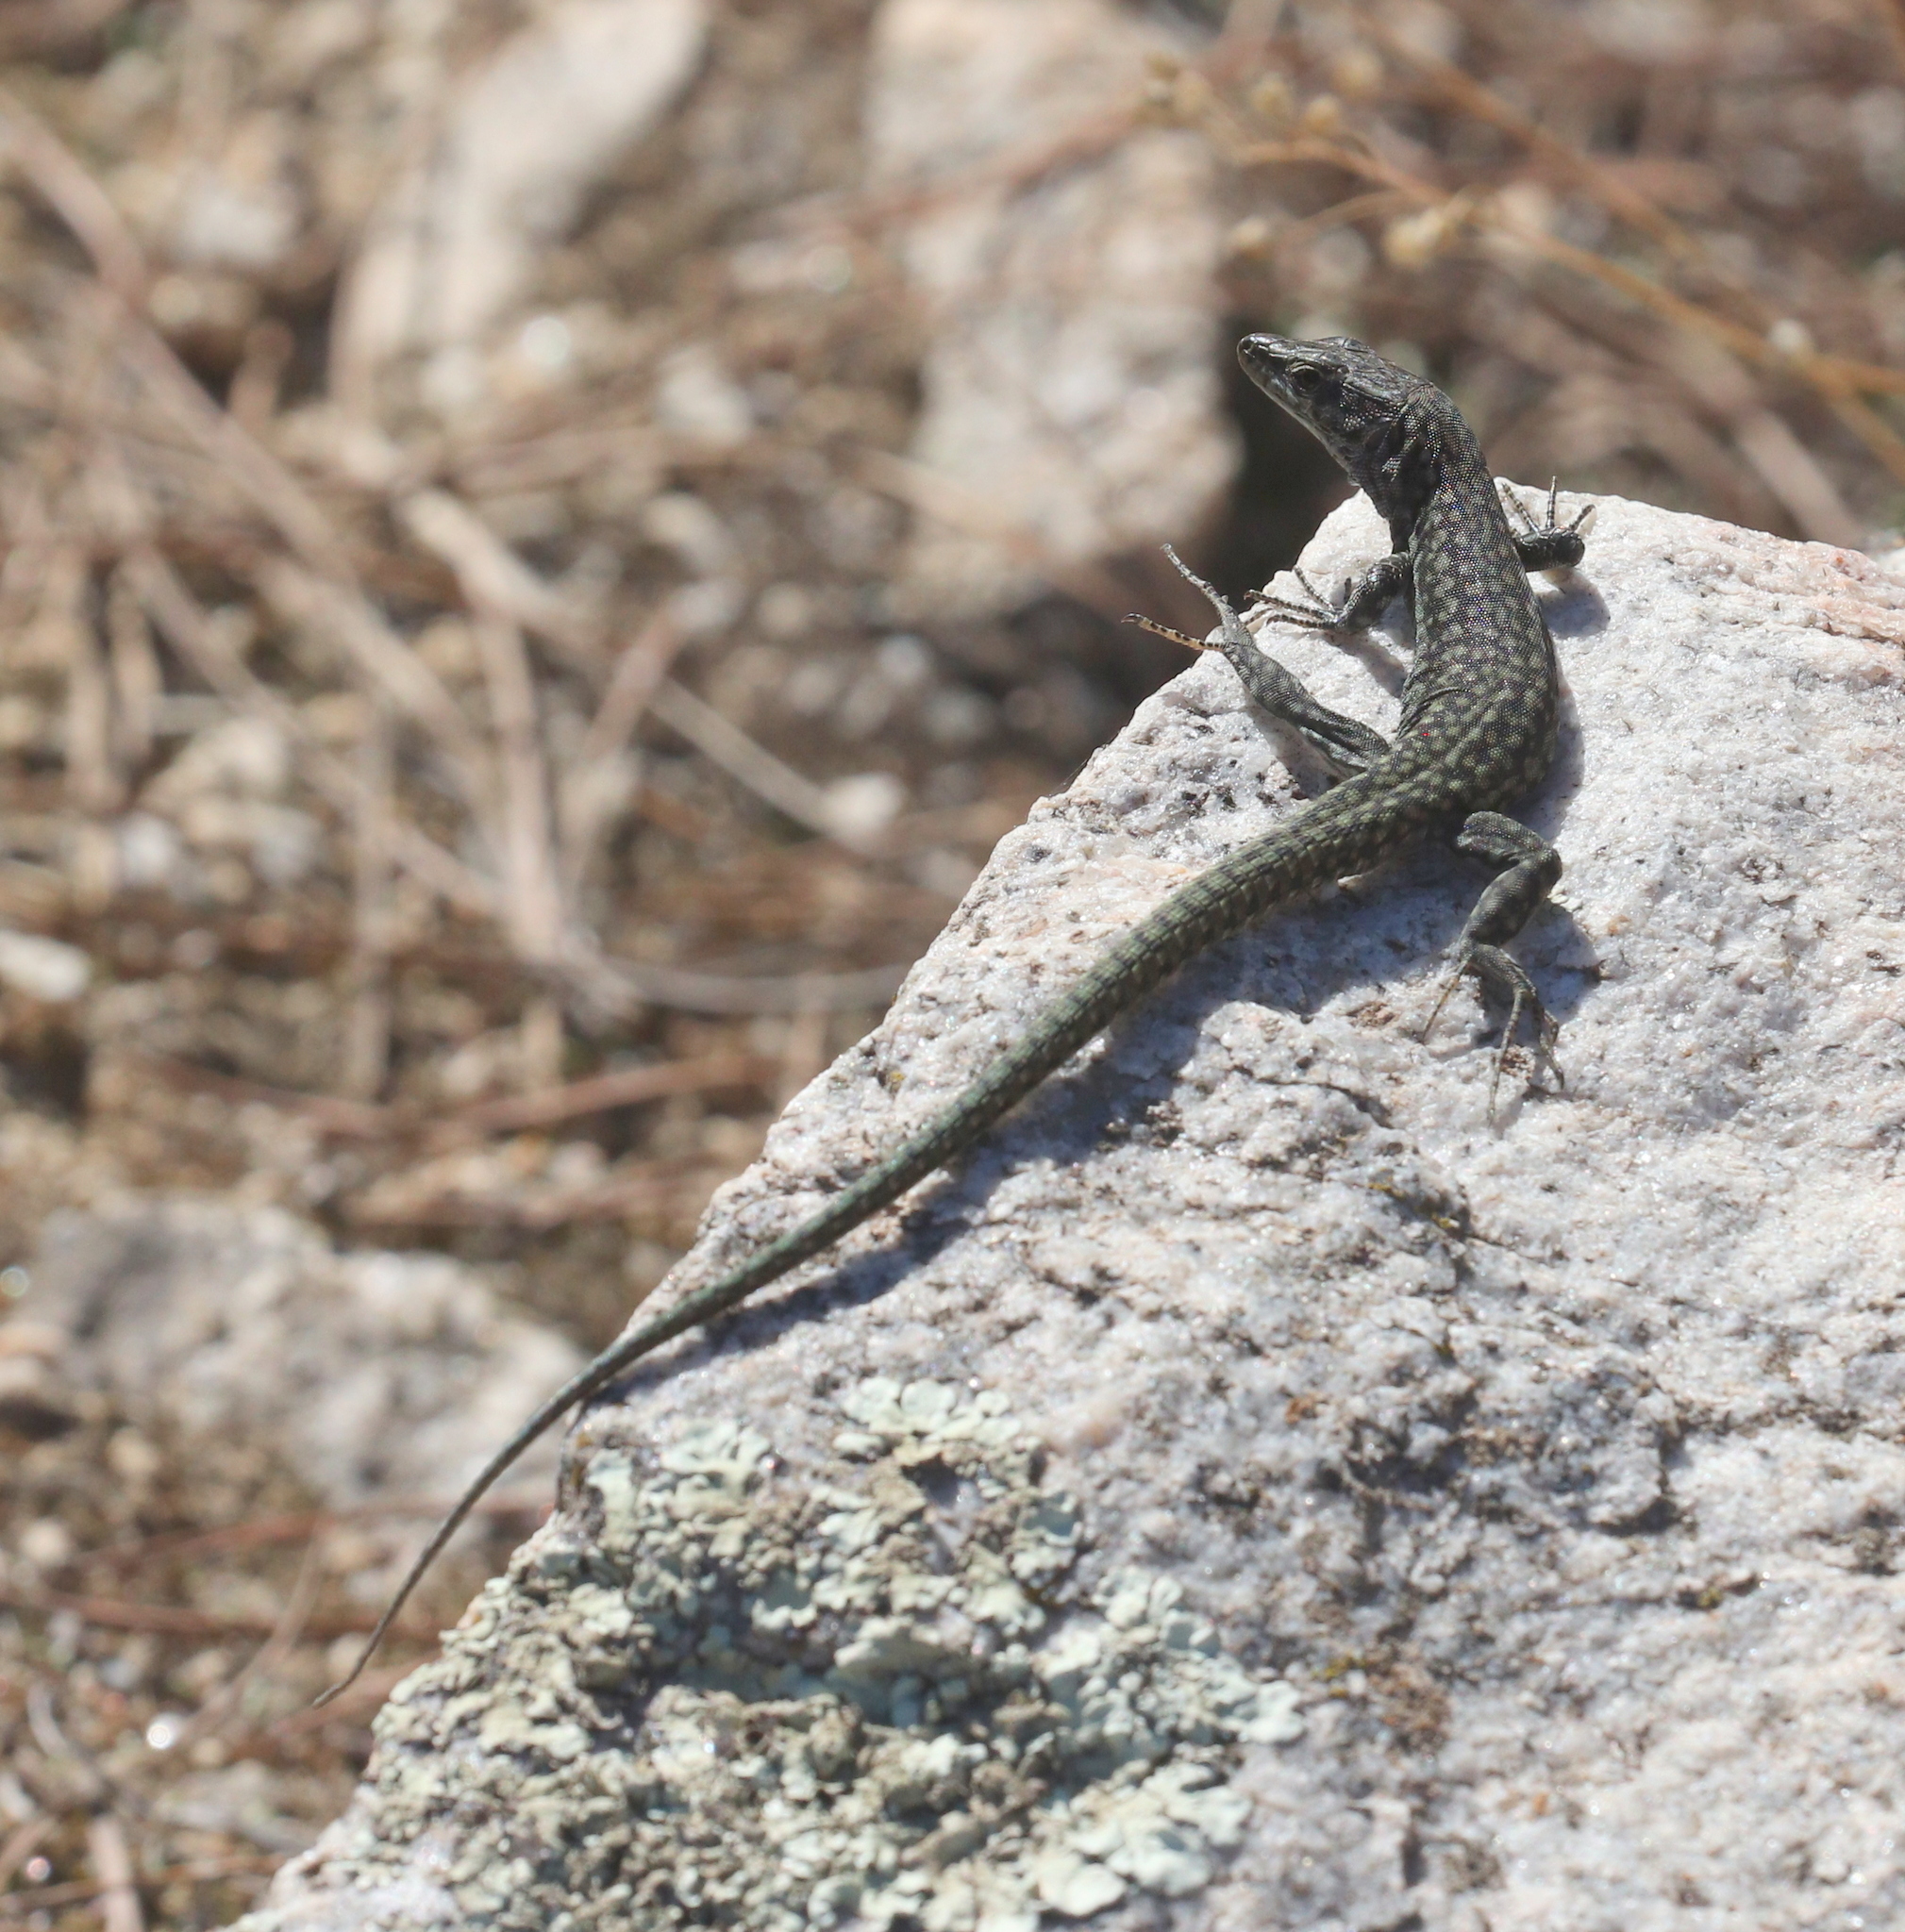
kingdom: Animalia
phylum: Chordata
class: Squamata
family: Lacertidae
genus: Podarcis
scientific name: Podarcis virescens
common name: Geniez’s wall lizard
